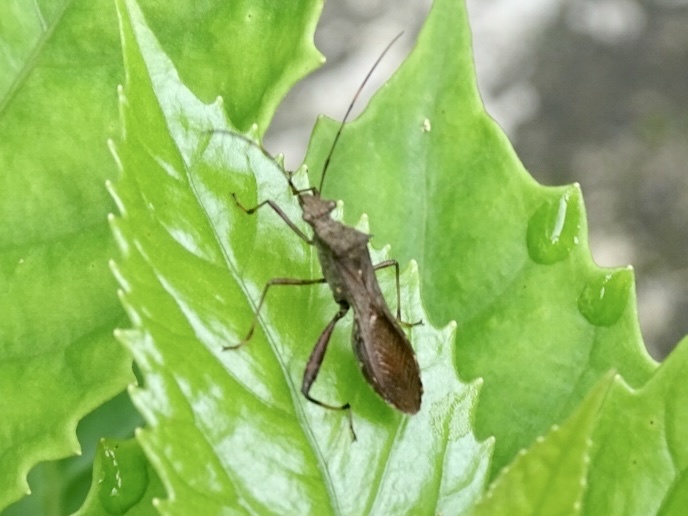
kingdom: Animalia
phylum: Arthropoda
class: Insecta
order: Hemiptera
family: Alydidae
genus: Riptortus
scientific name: Riptortus pedestris
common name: Bean bug
